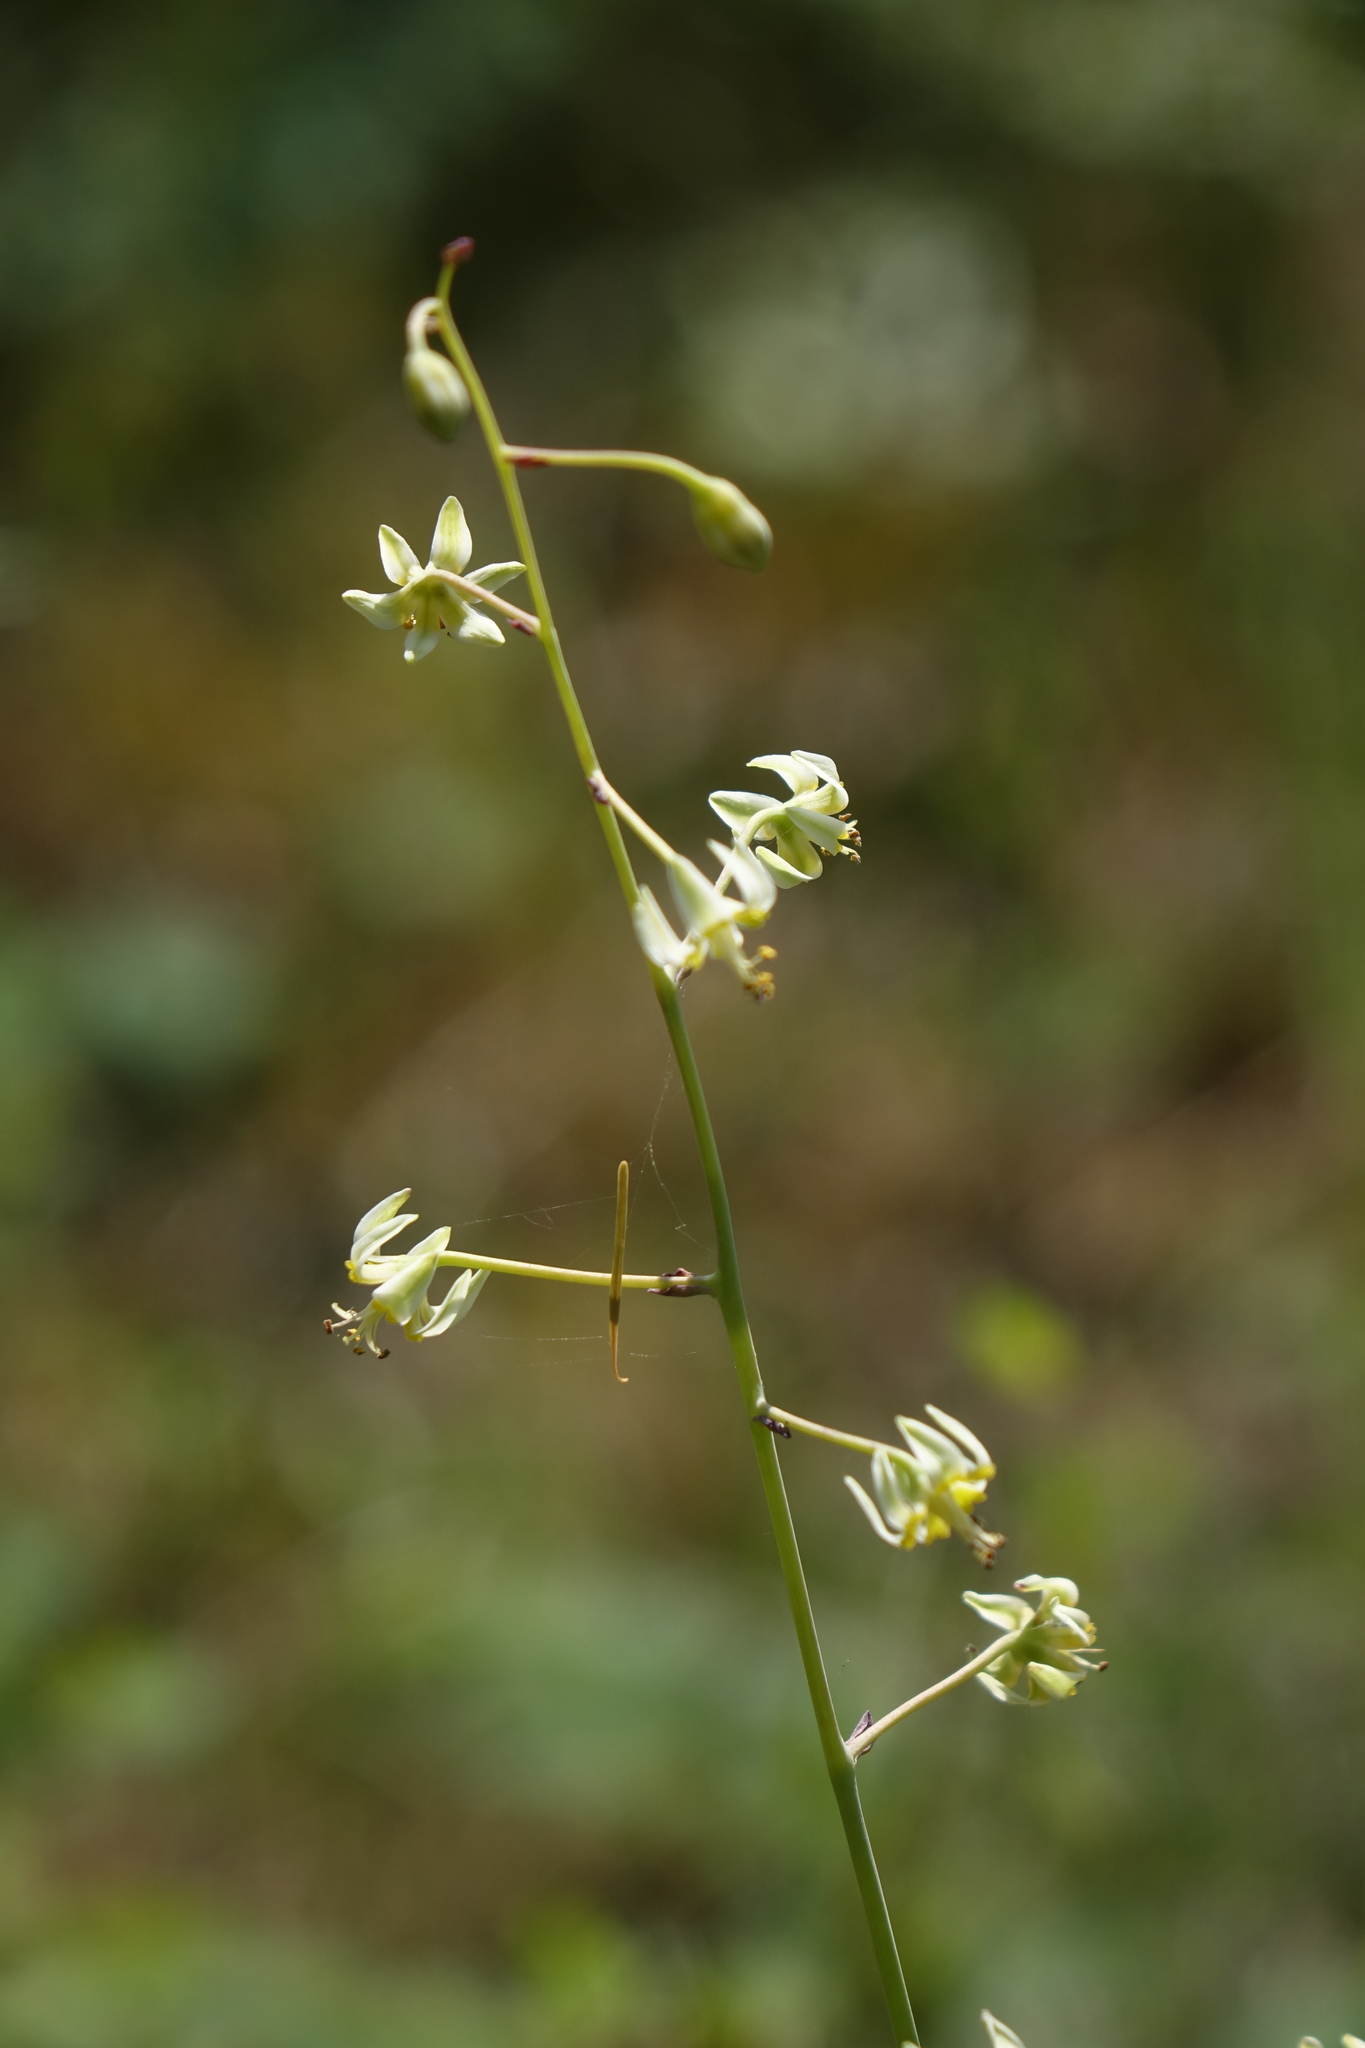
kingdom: Plantae
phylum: Tracheophyta
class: Liliopsida
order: Liliales
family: Melanthiaceae
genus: Anticlea
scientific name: Anticlea sibirica
